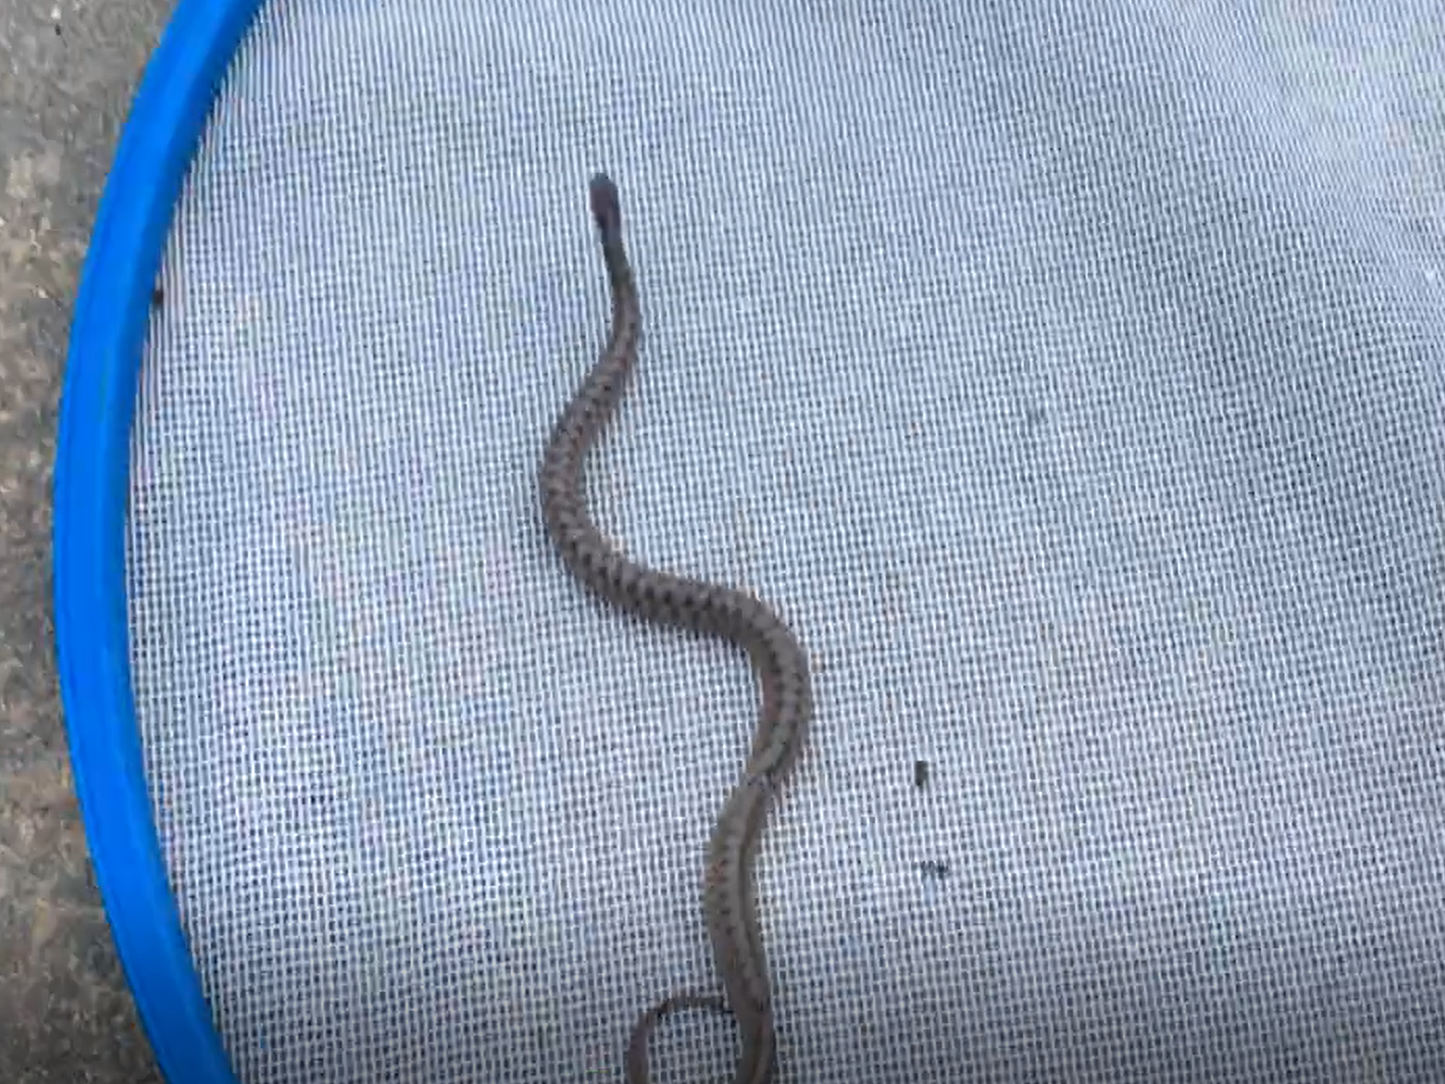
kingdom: Animalia
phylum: Chordata
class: Squamata
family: Colubridae
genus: Storeria
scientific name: Storeria dekayi
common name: (dekay’s) brown snake
